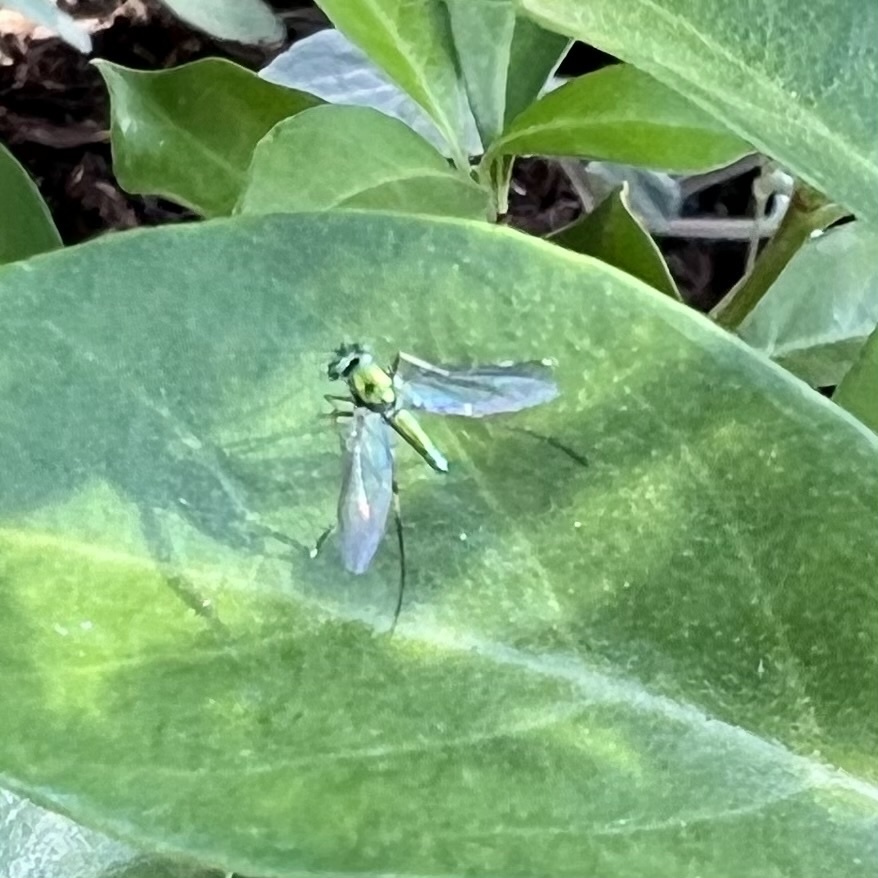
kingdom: Animalia
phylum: Arthropoda
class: Insecta
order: Diptera
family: Dolichopodidae
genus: Chrysosoma
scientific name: Chrysosoma leucopogon
